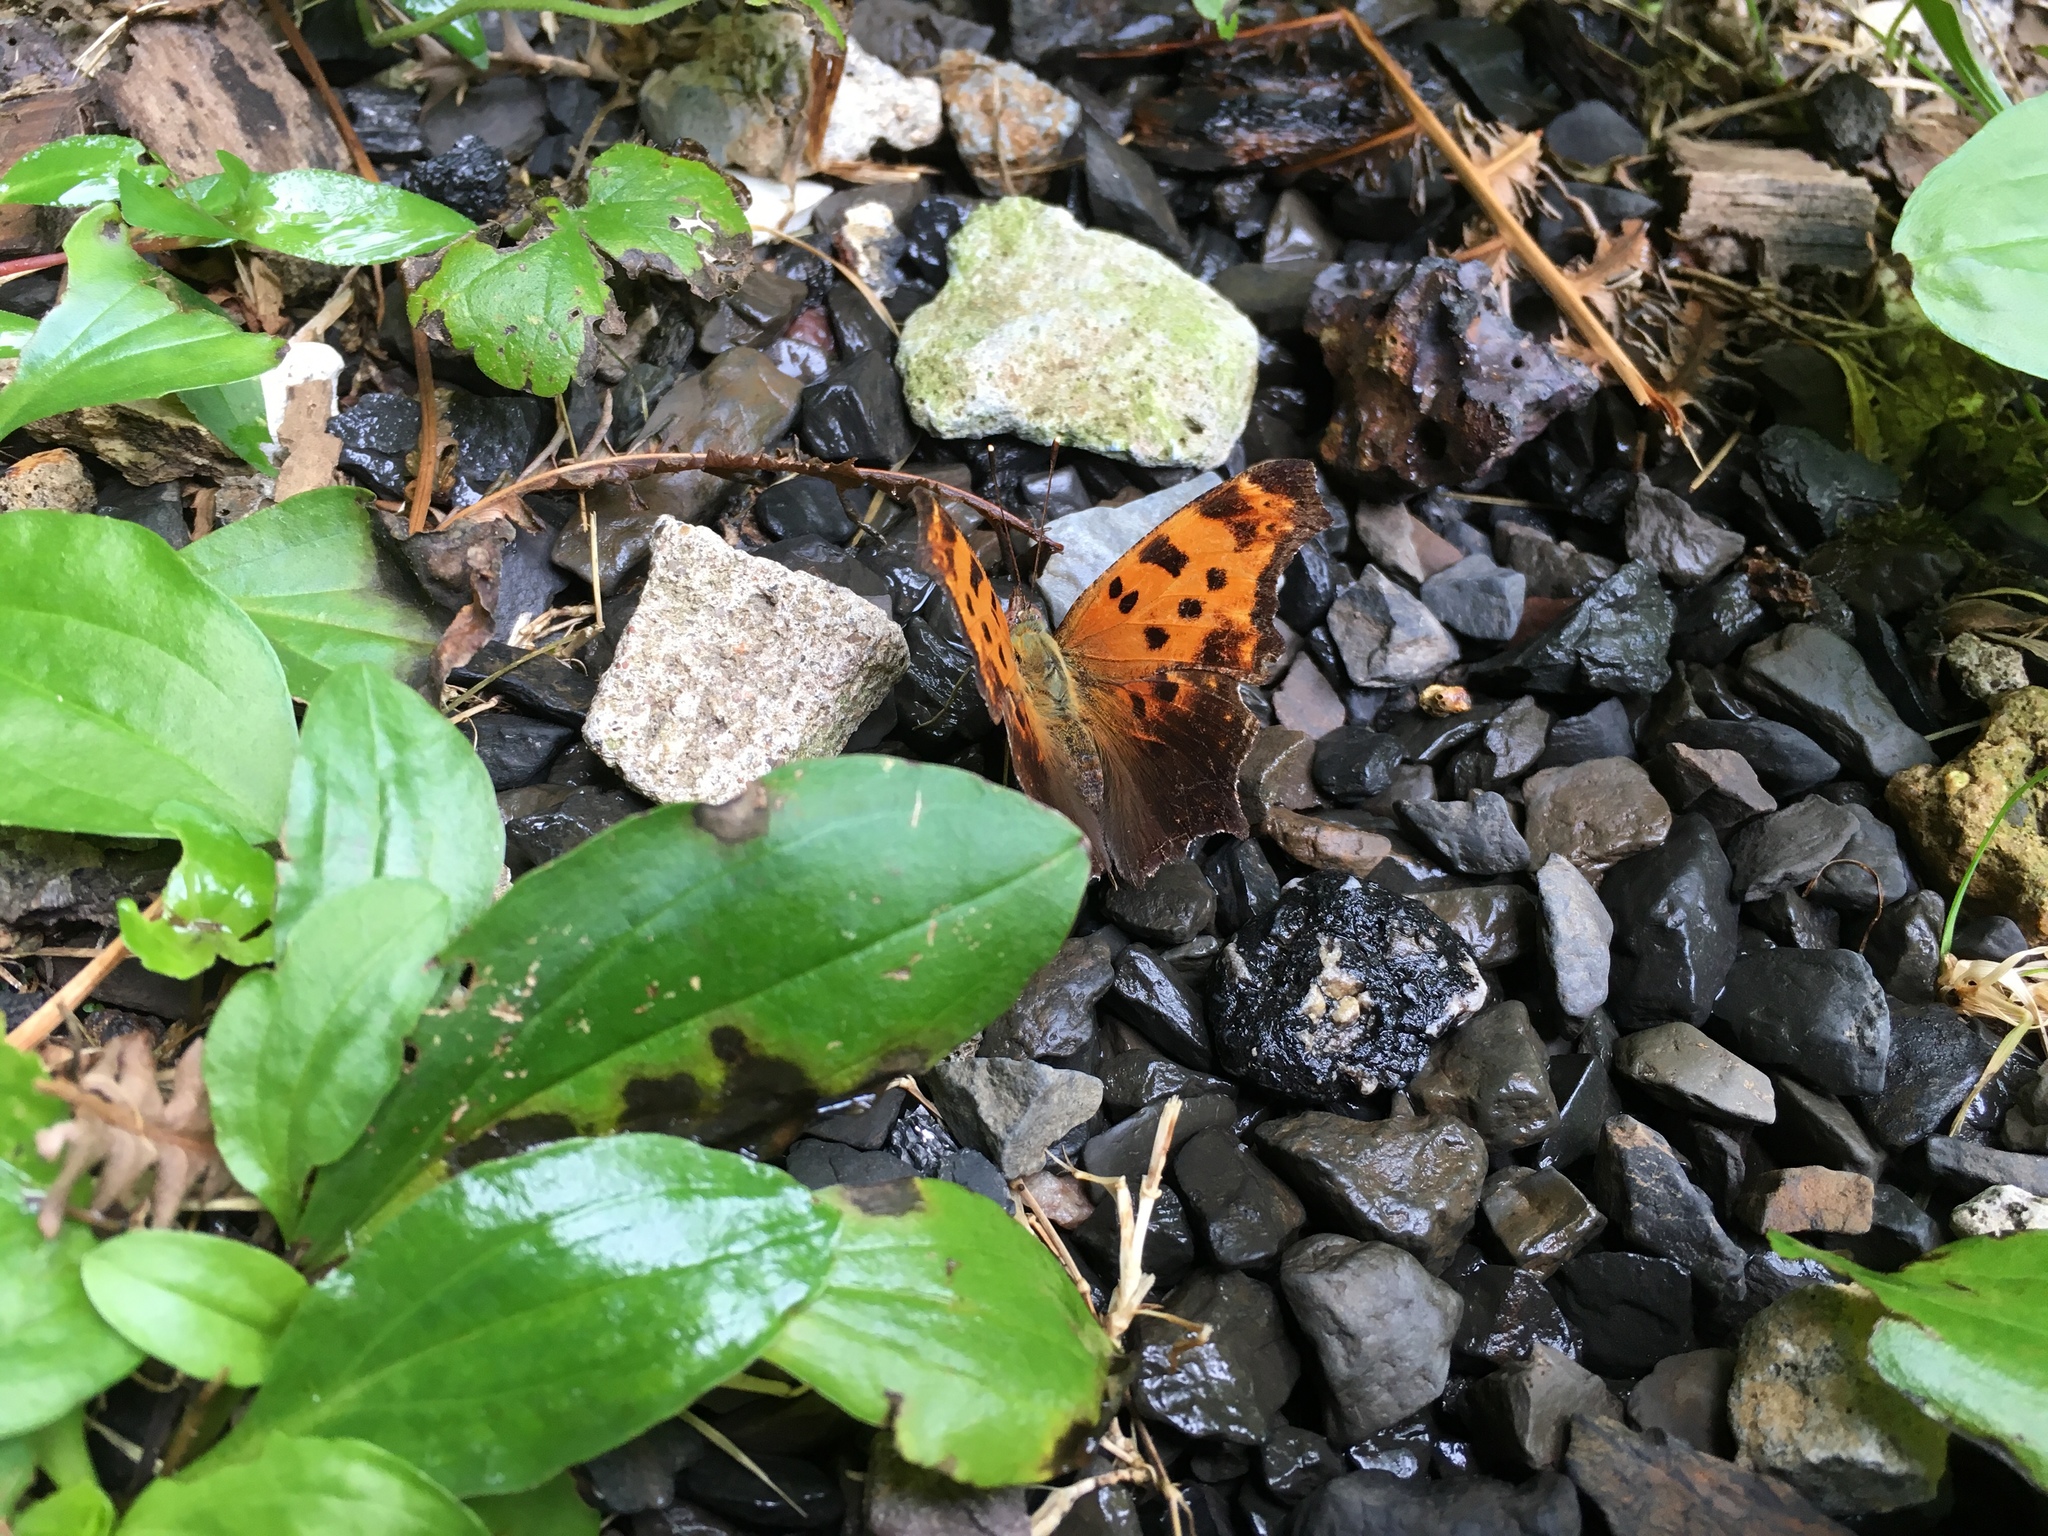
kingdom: Animalia
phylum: Arthropoda
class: Insecta
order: Lepidoptera
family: Nymphalidae
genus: Polygonia
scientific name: Polygonia comma
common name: Eastern comma
